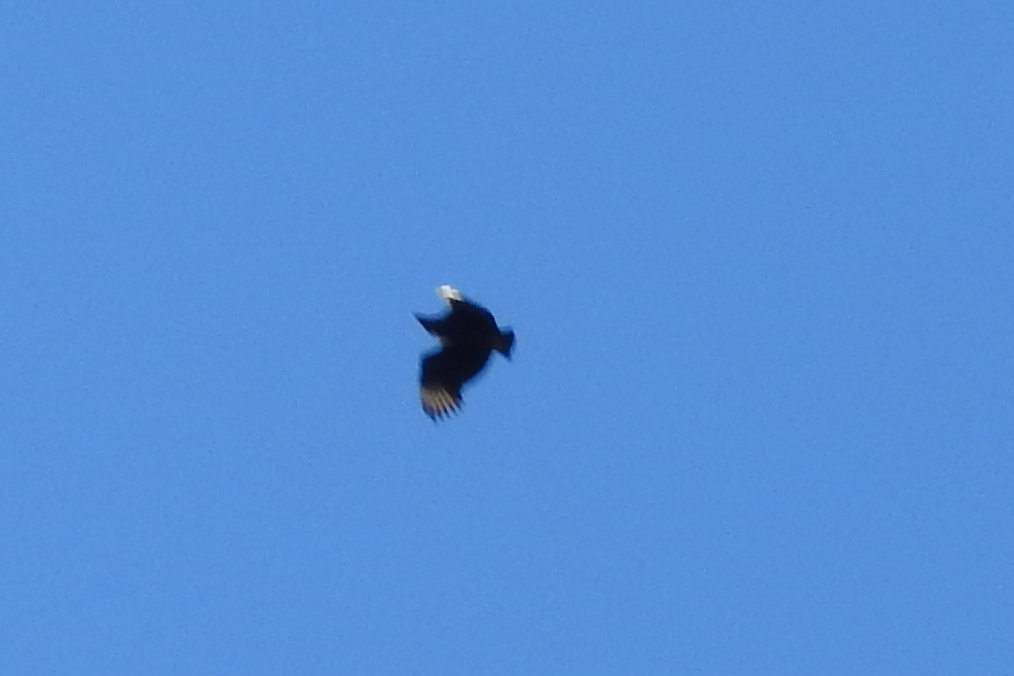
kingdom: Animalia
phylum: Chordata
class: Aves
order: Accipitriformes
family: Cathartidae
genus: Coragyps
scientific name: Coragyps atratus
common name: Black vulture
